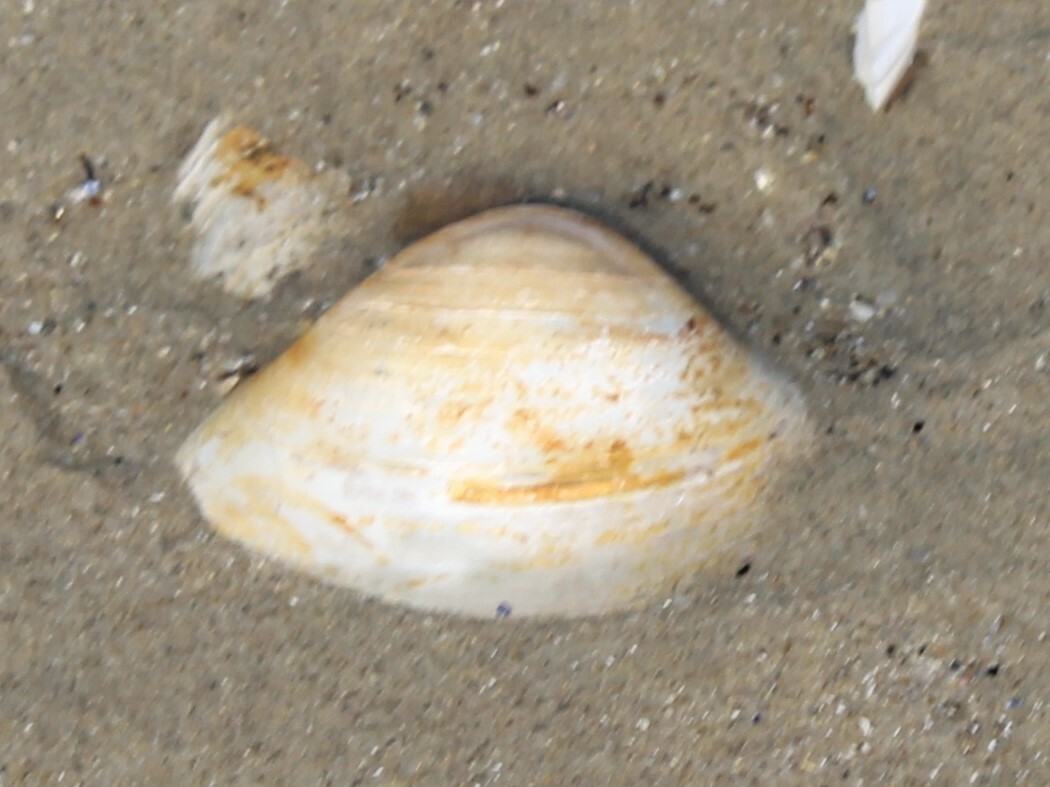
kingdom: Animalia
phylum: Mollusca
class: Bivalvia
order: Venerida
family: Mactridae
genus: Spisula
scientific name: Spisula solidissima
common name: Atlantic surf clam
